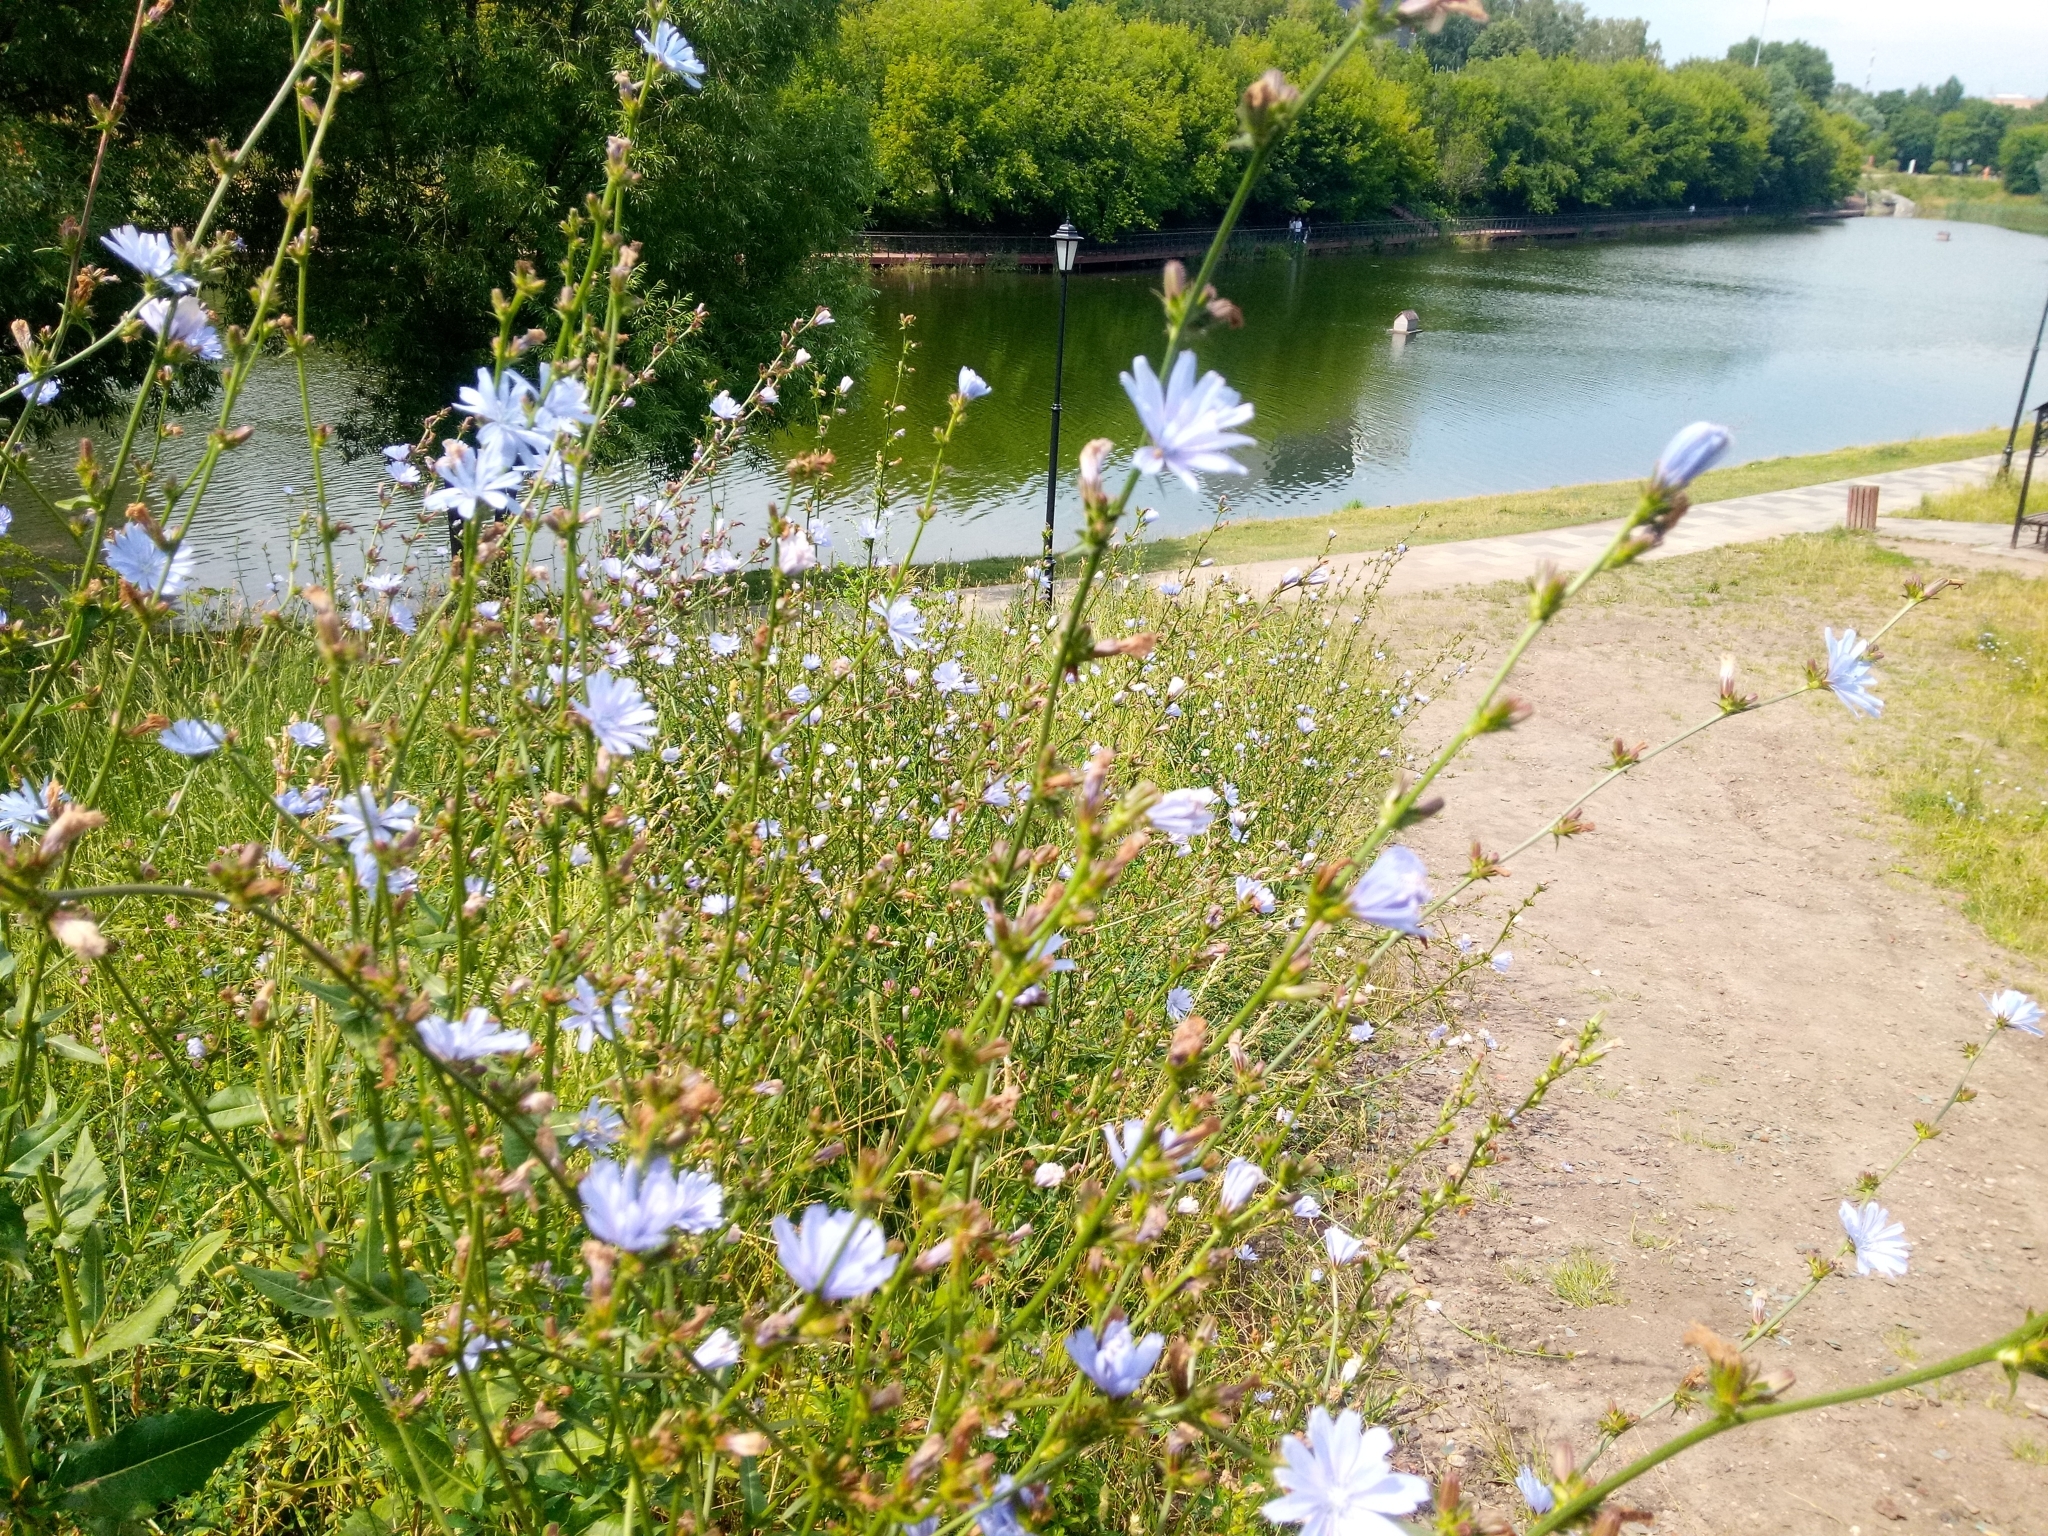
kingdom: Plantae
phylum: Tracheophyta
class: Magnoliopsida
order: Asterales
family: Asteraceae
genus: Cichorium
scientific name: Cichorium intybus
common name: Chicory
